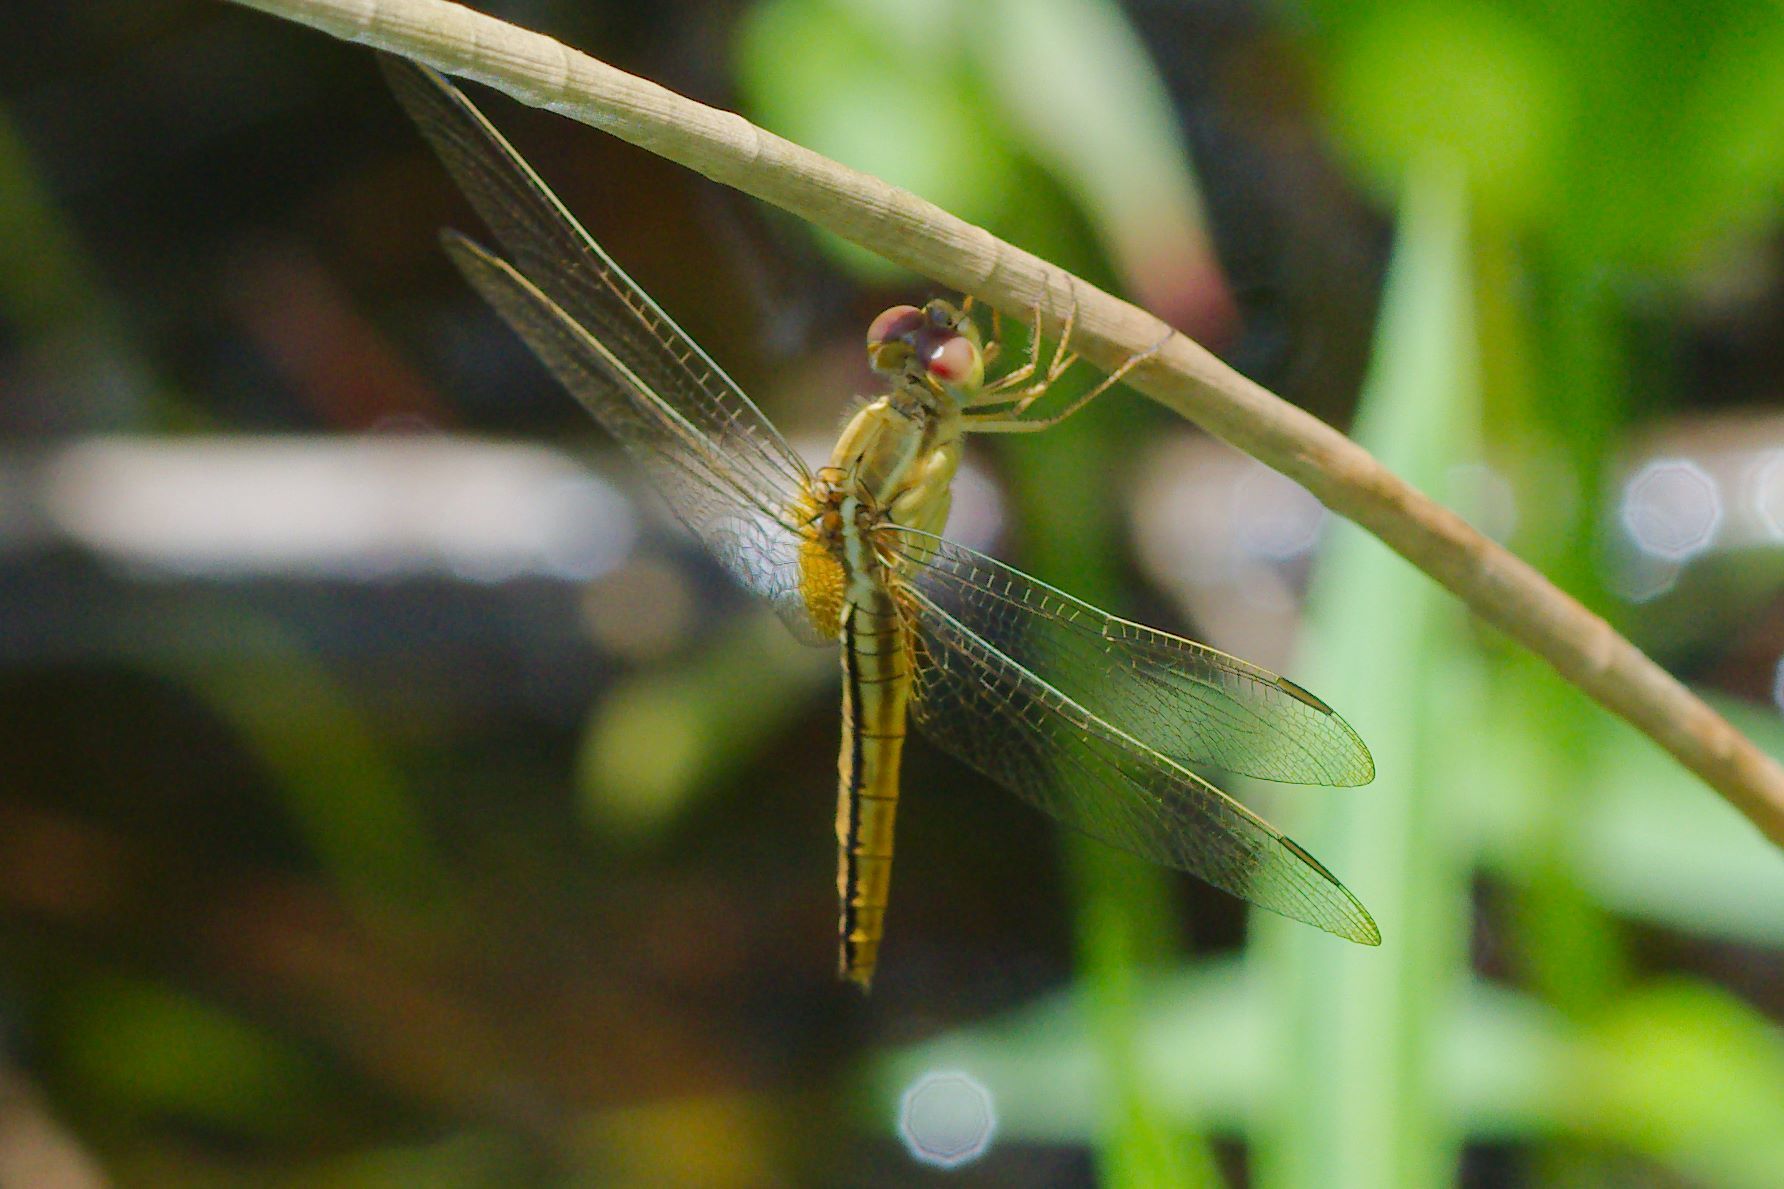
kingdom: Animalia
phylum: Arthropoda
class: Insecta
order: Odonata
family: Libellulidae
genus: Crocothemis
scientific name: Crocothemis servilia
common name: Scarlet skimmer
